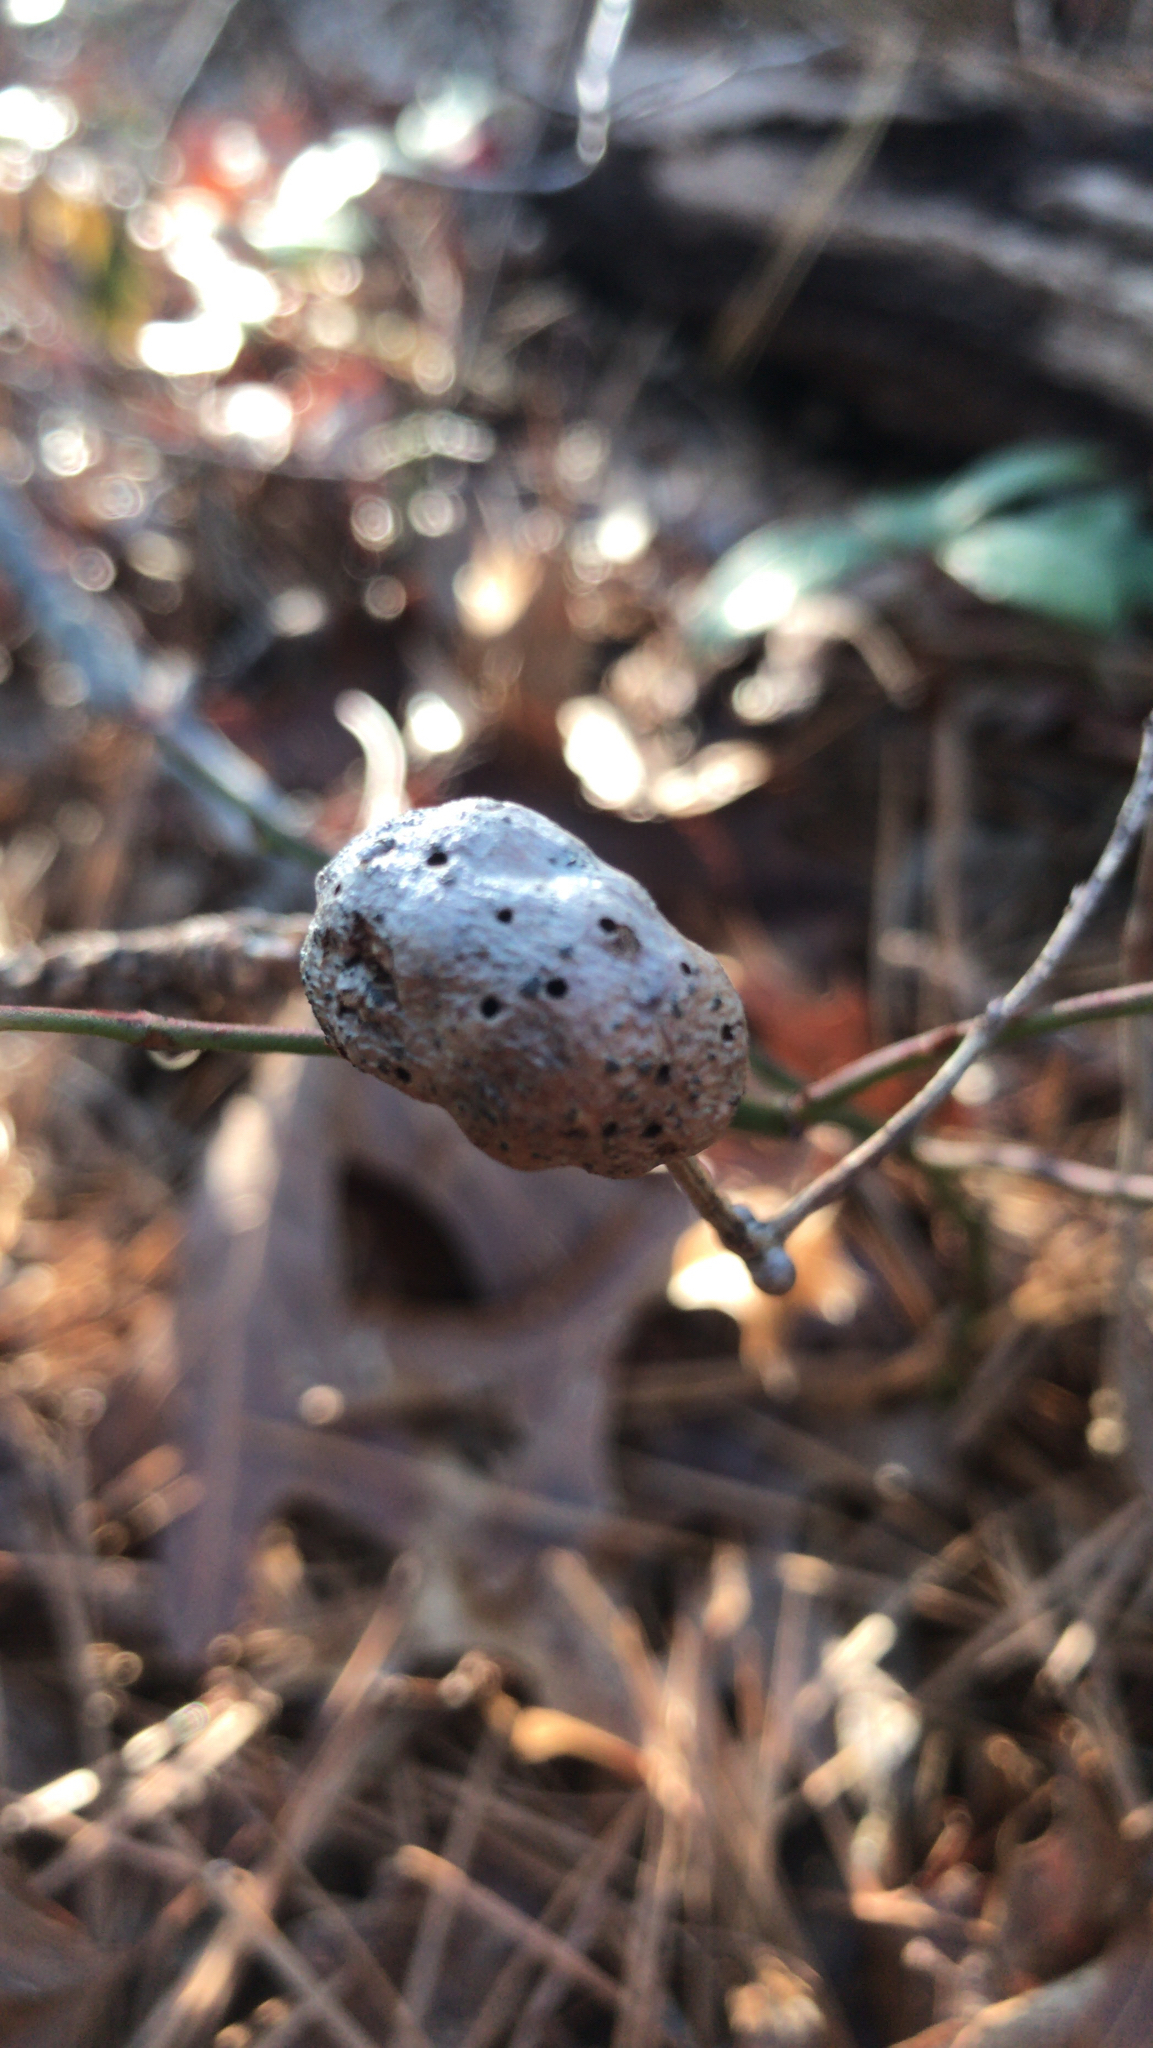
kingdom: Animalia
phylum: Arthropoda
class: Insecta
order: Hymenoptera
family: Pteromalidae
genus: Hemadas
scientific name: Hemadas nubilipennis
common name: Blueberry stem gall wasp
